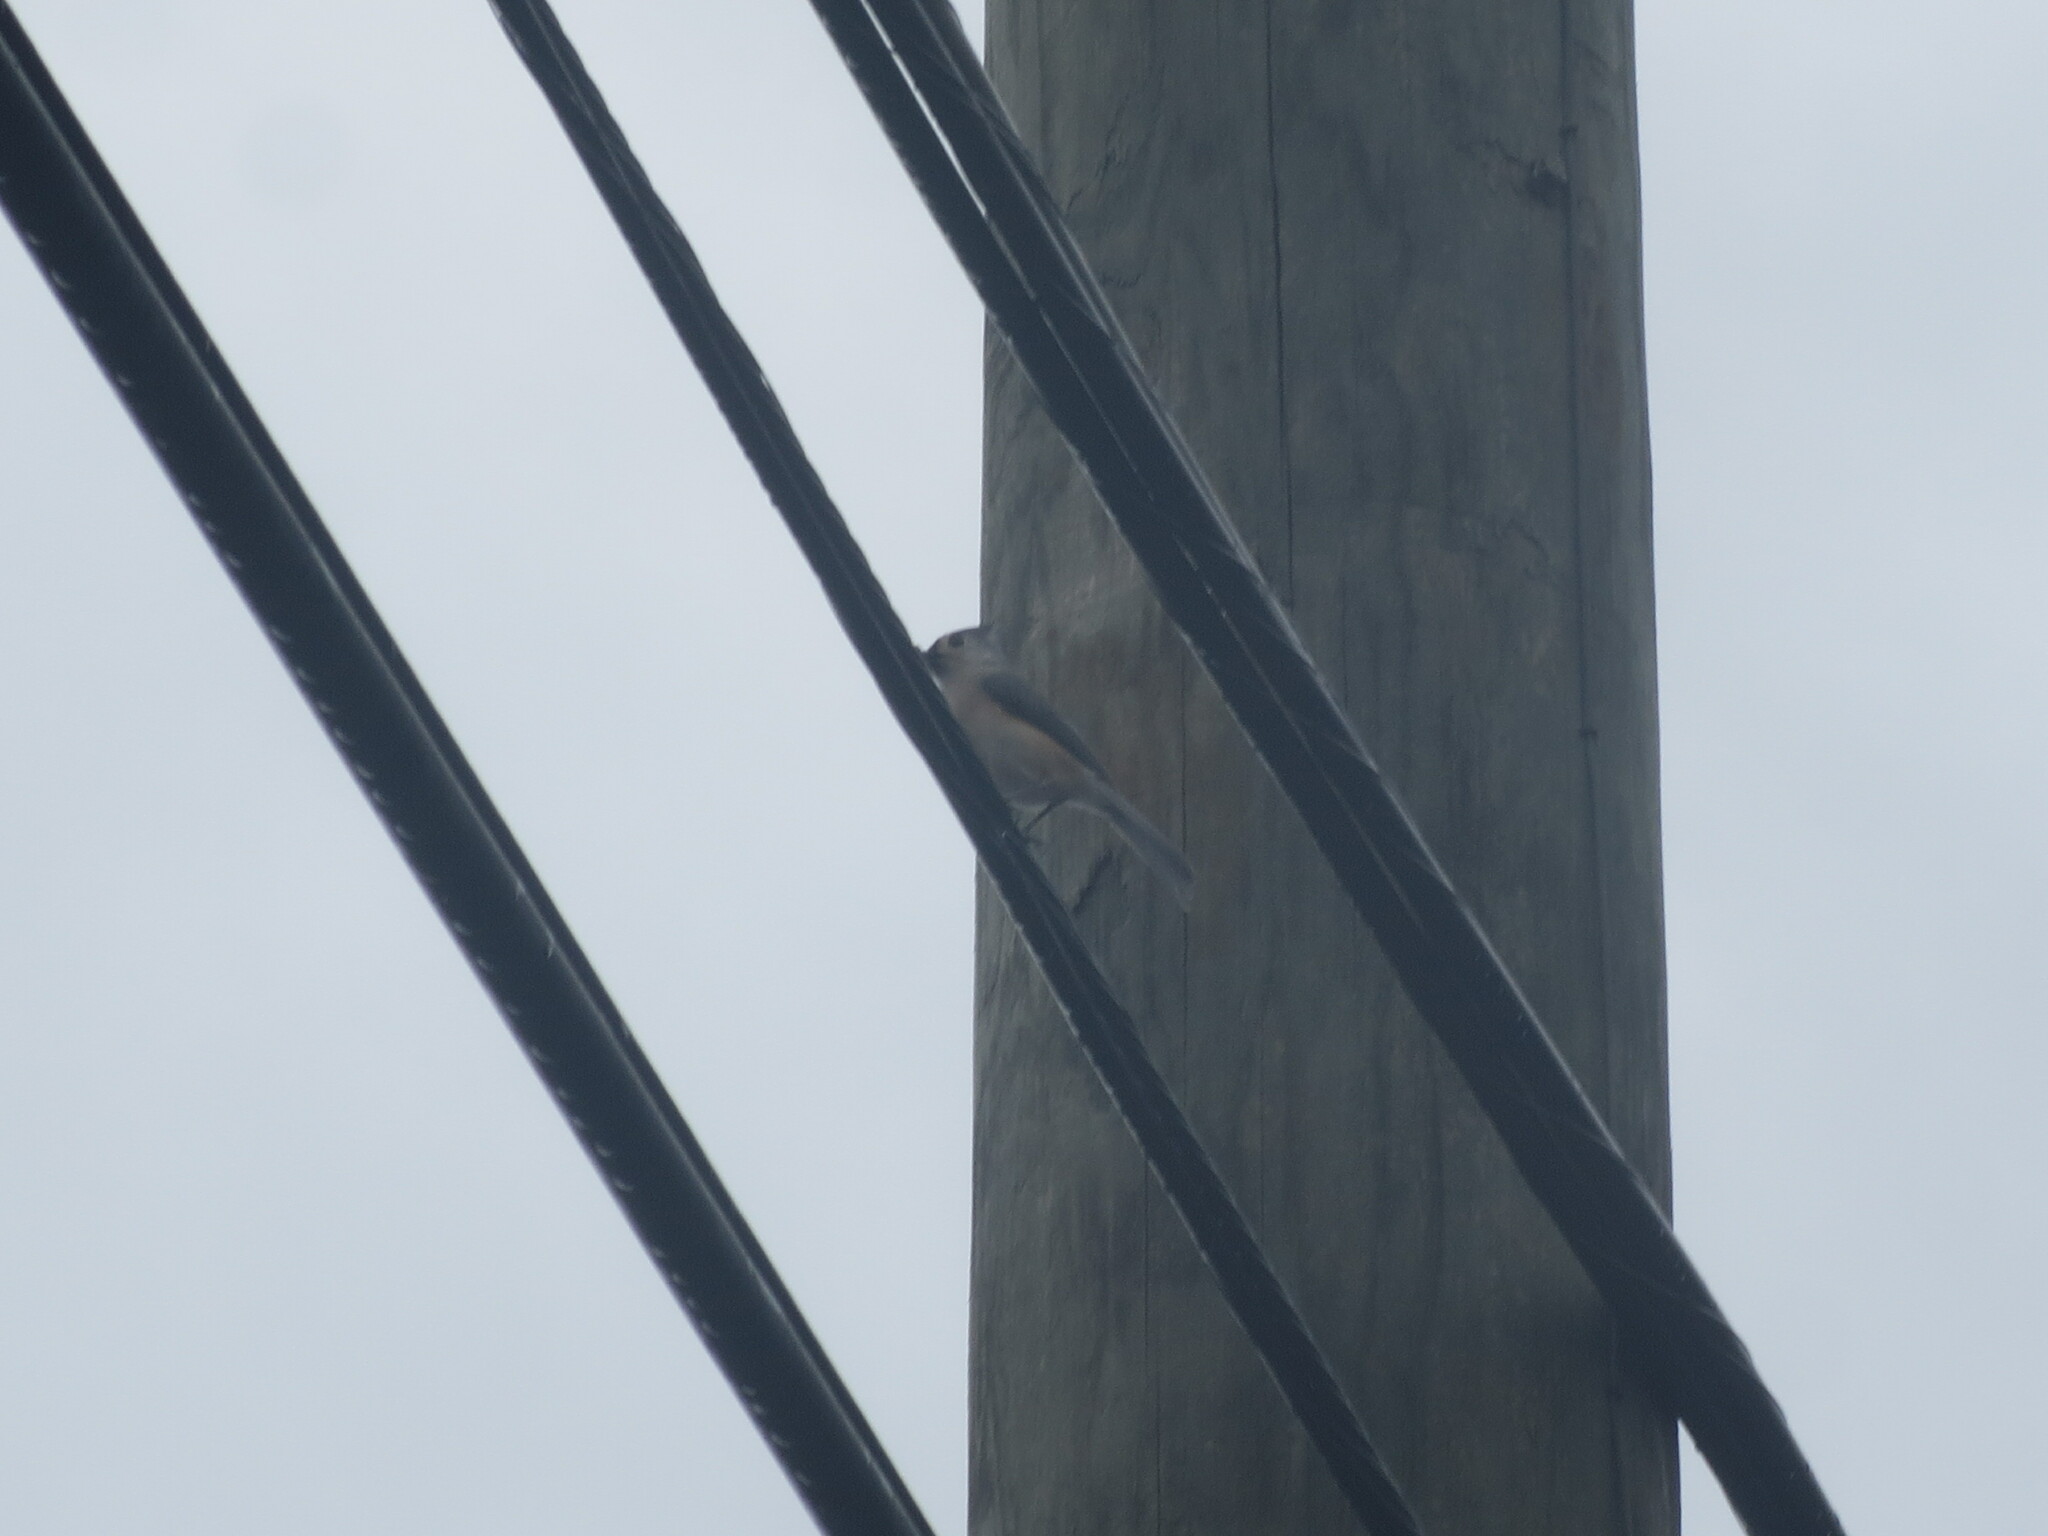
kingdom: Animalia
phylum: Chordata
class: Aves
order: Passeriformes
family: Paridae
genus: Baeolophus
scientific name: Baeolophus bicolor
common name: Tufted titmouse
